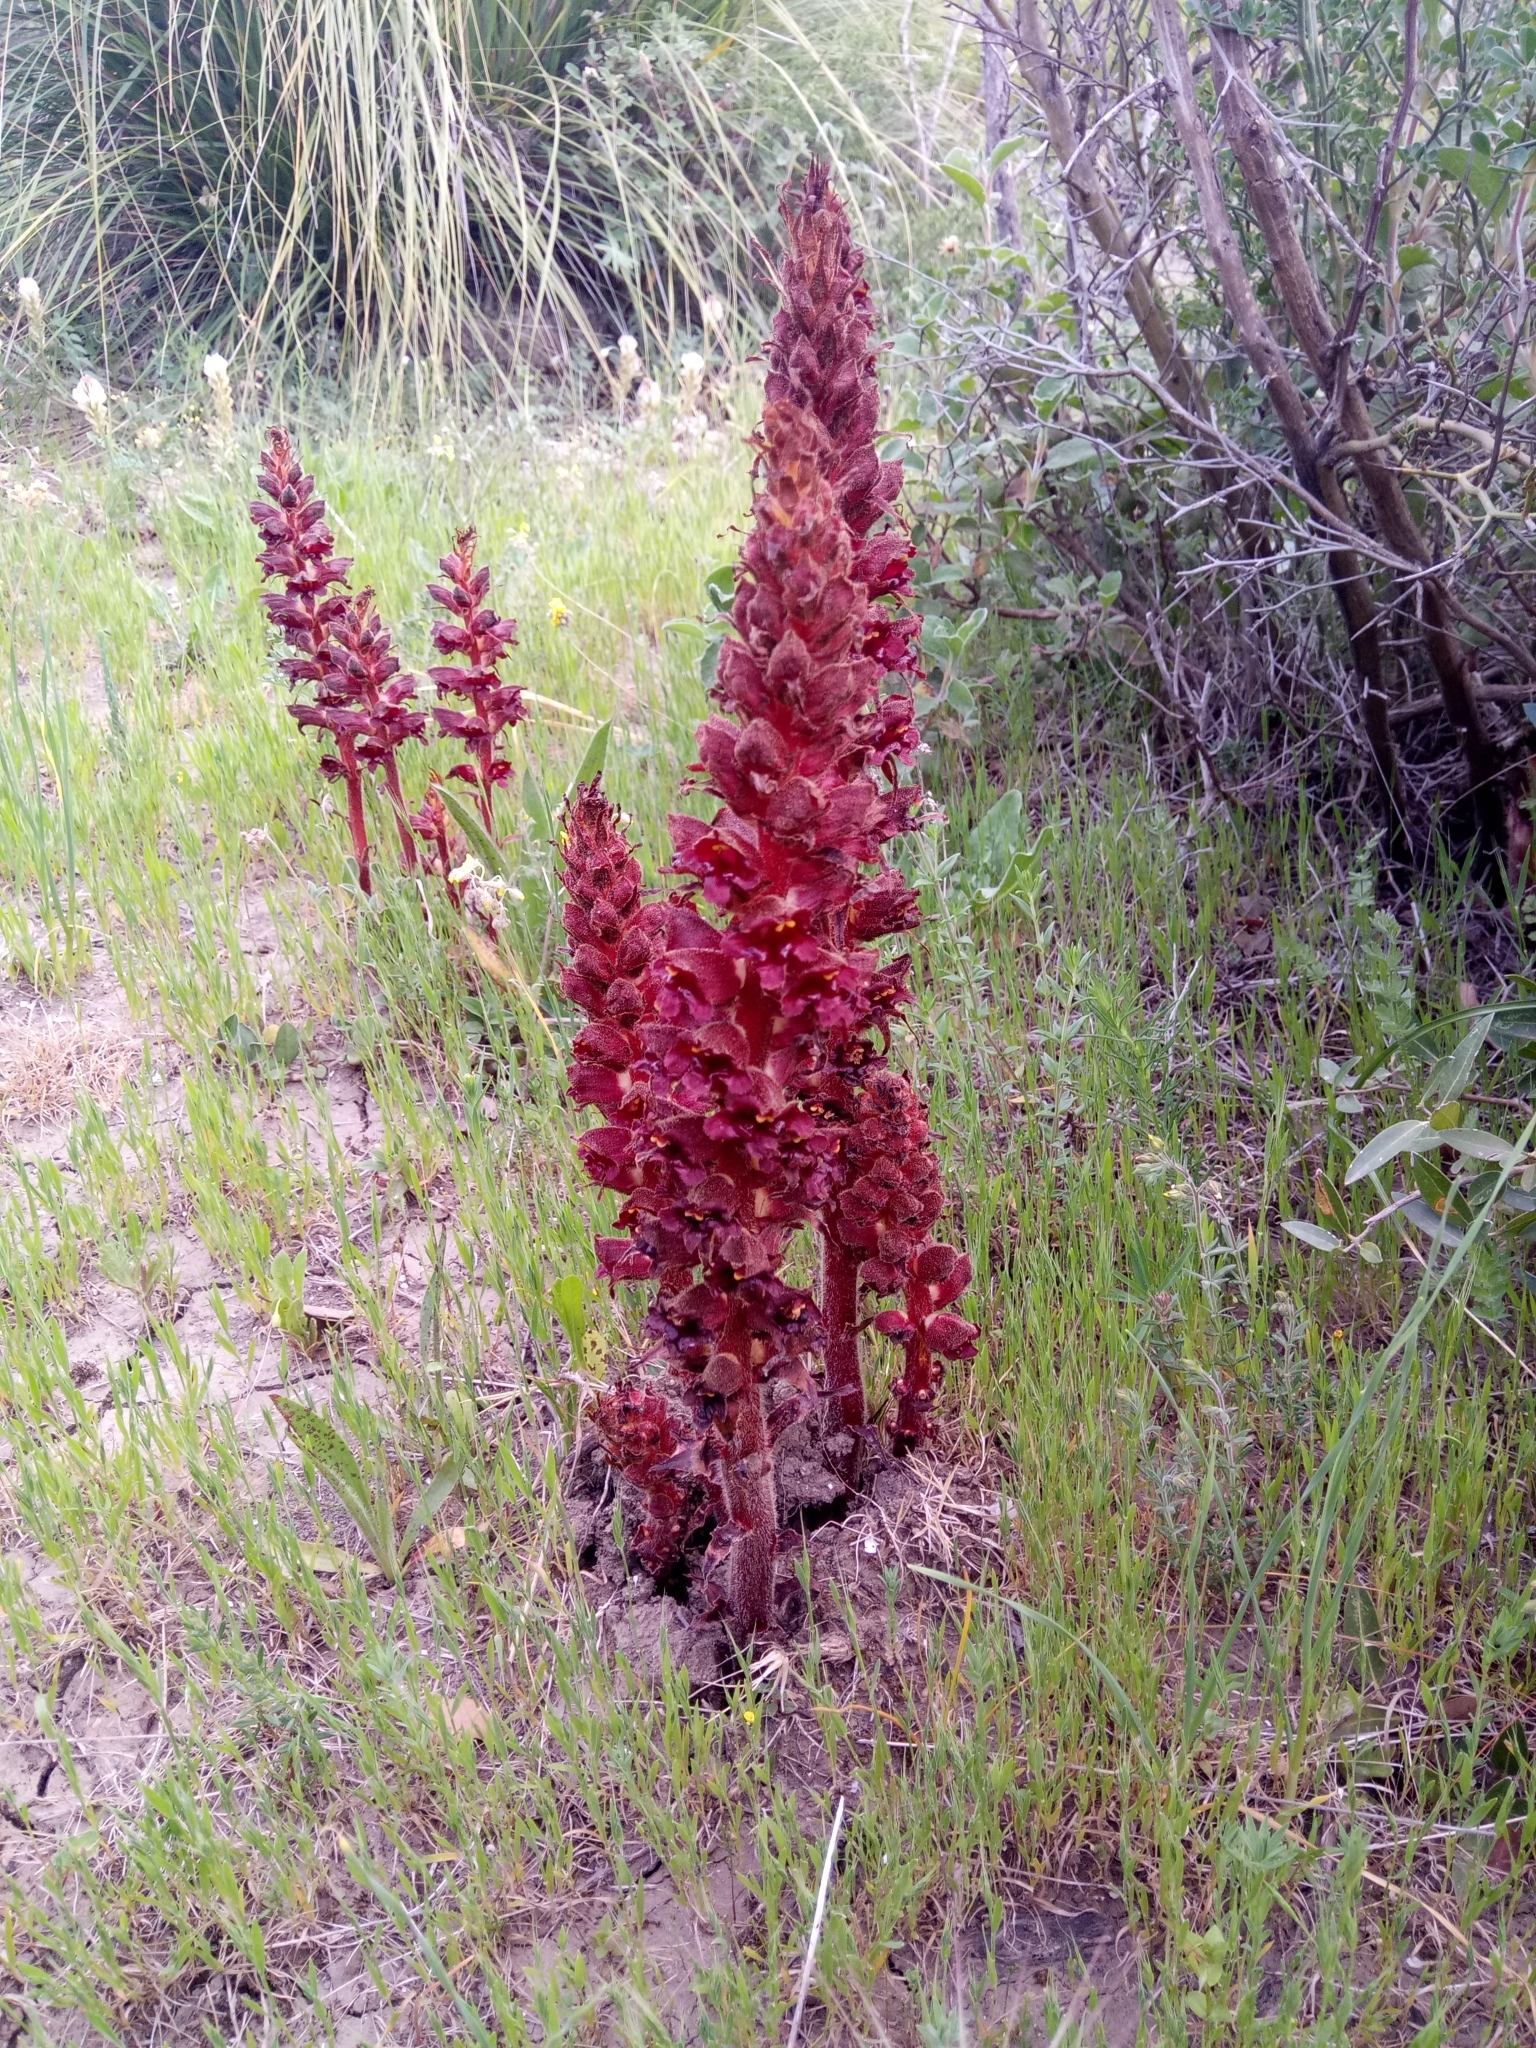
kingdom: Plantae
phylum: Tracheophyta
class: Magnoliopsida
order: Lamiales
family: Orobanchaceae
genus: Orobanche
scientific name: Orobanche variegata
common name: Variegated broomrape
